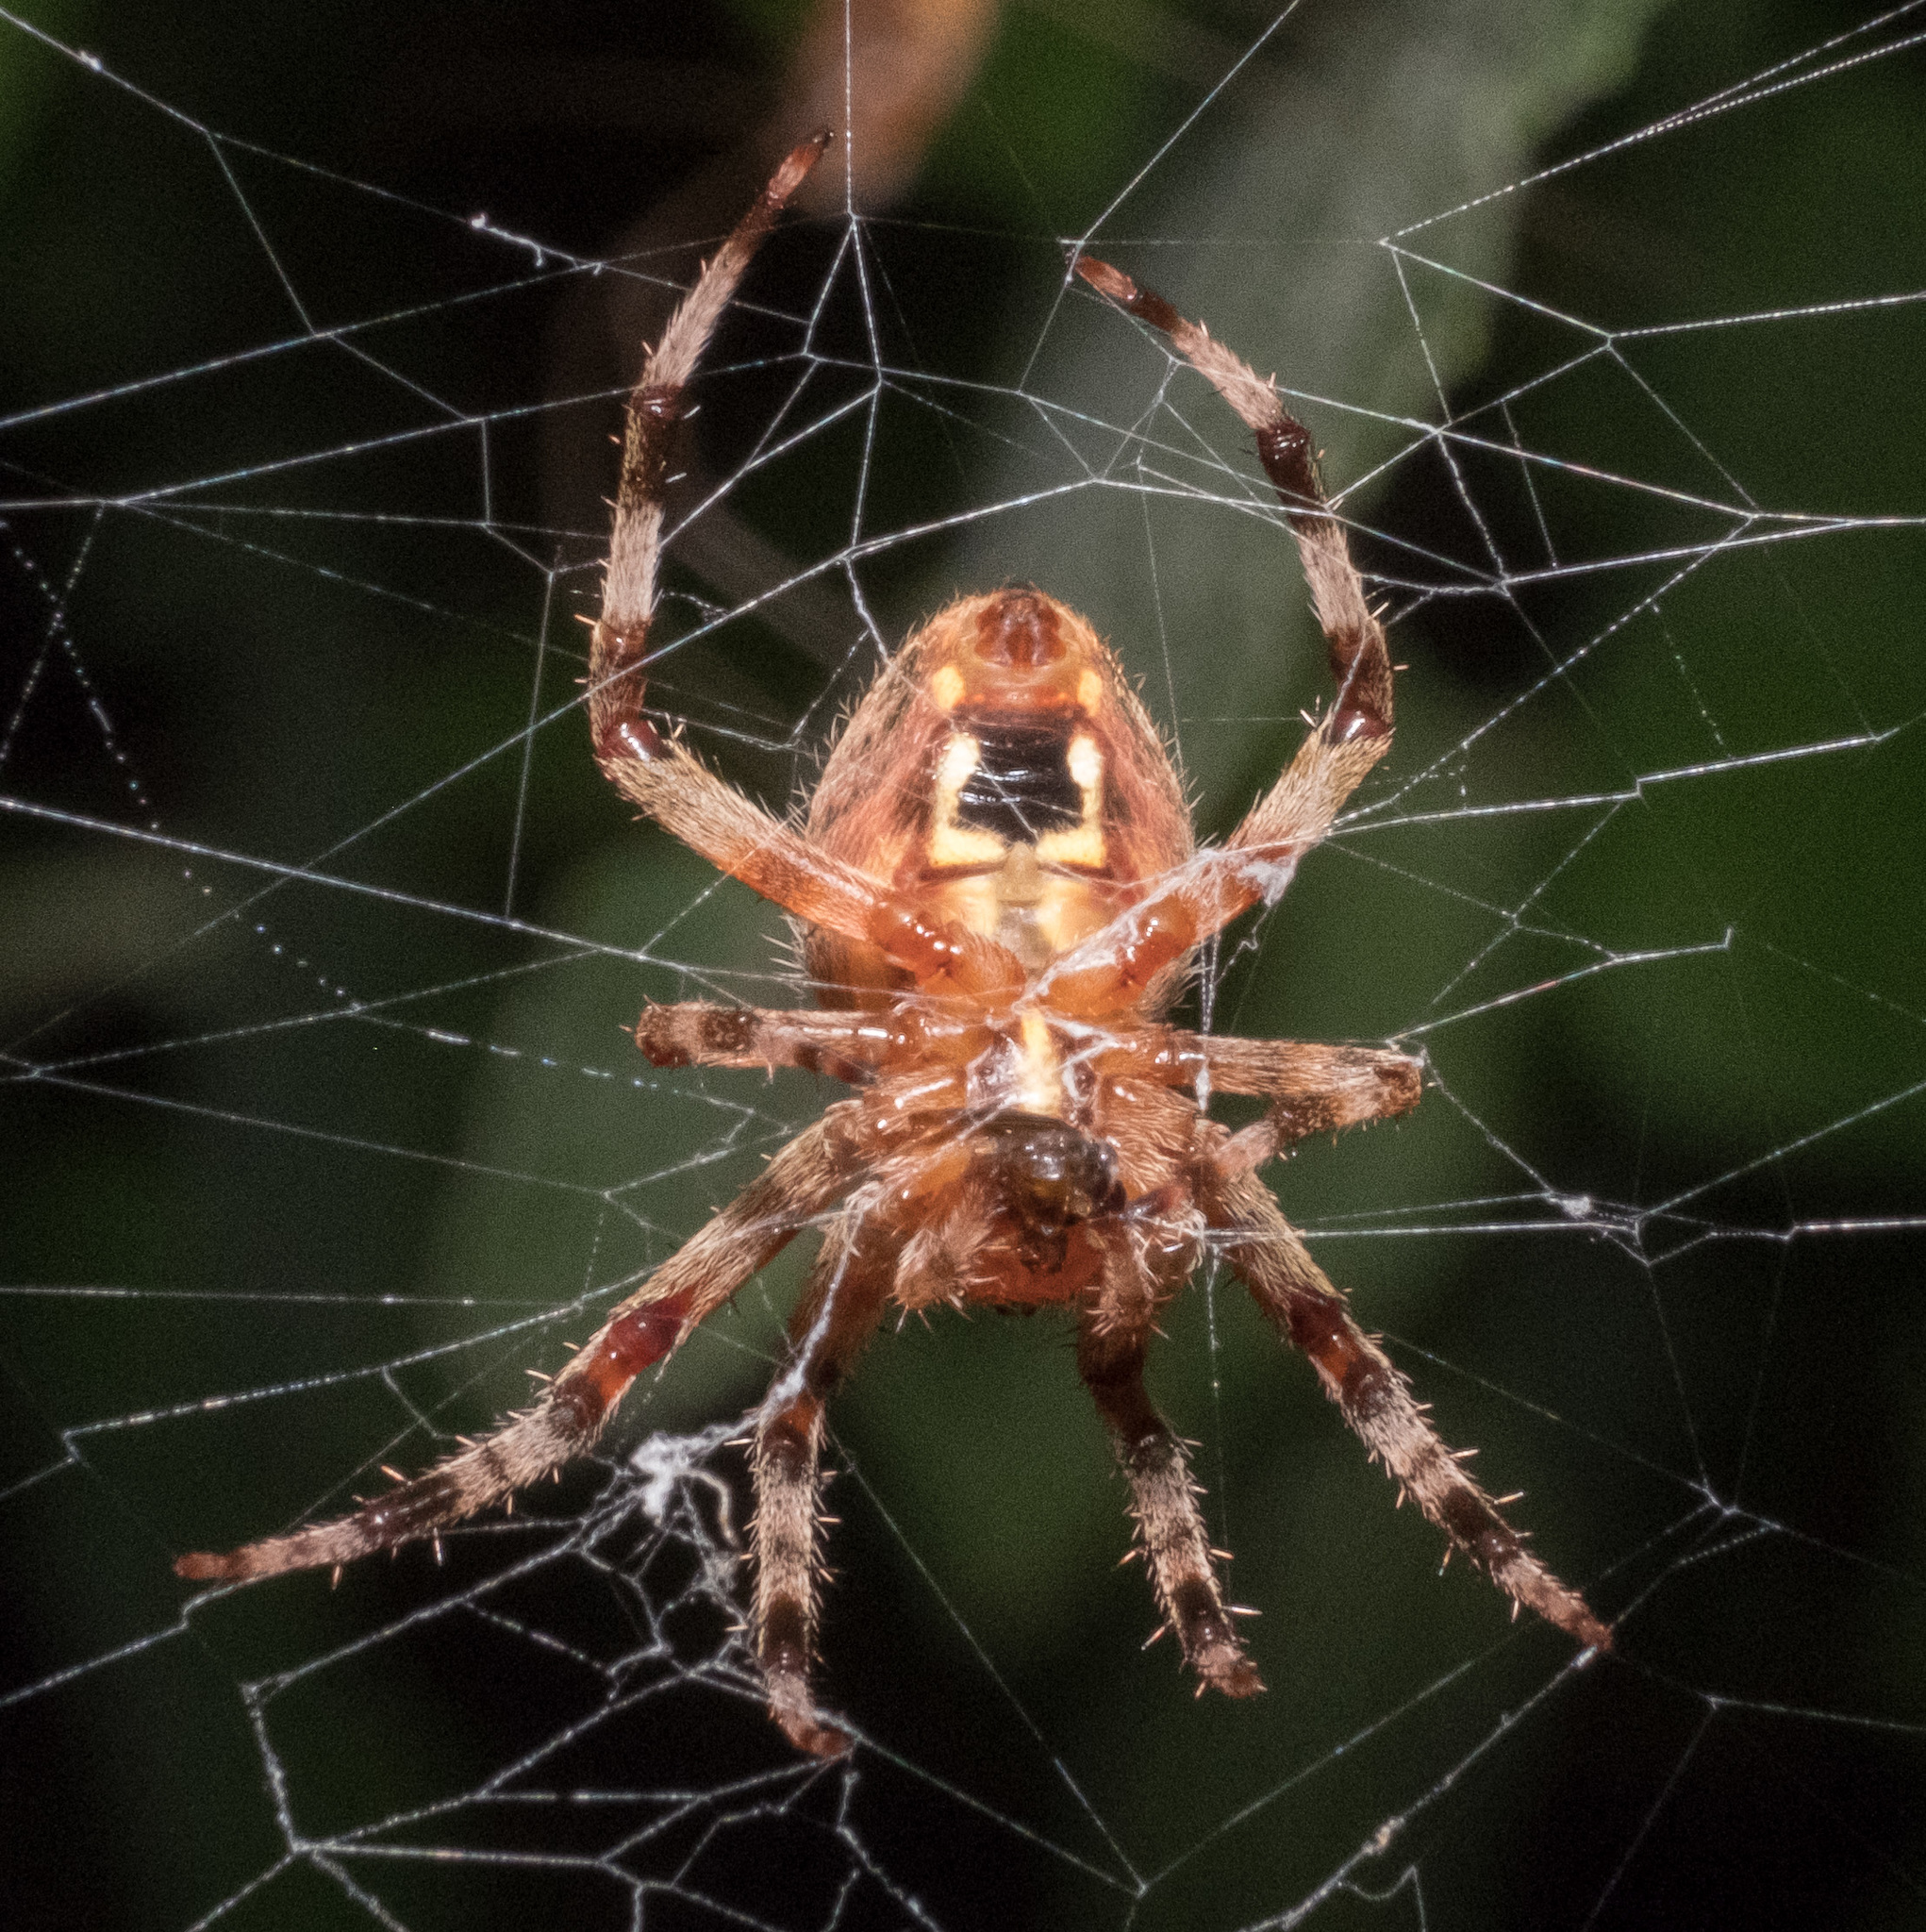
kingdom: Animalia
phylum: Arthropoda
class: Arachnida
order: Araneae
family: Araneidae
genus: Neoscona
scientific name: Neoscona crucifera
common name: Spotted orbweaver
